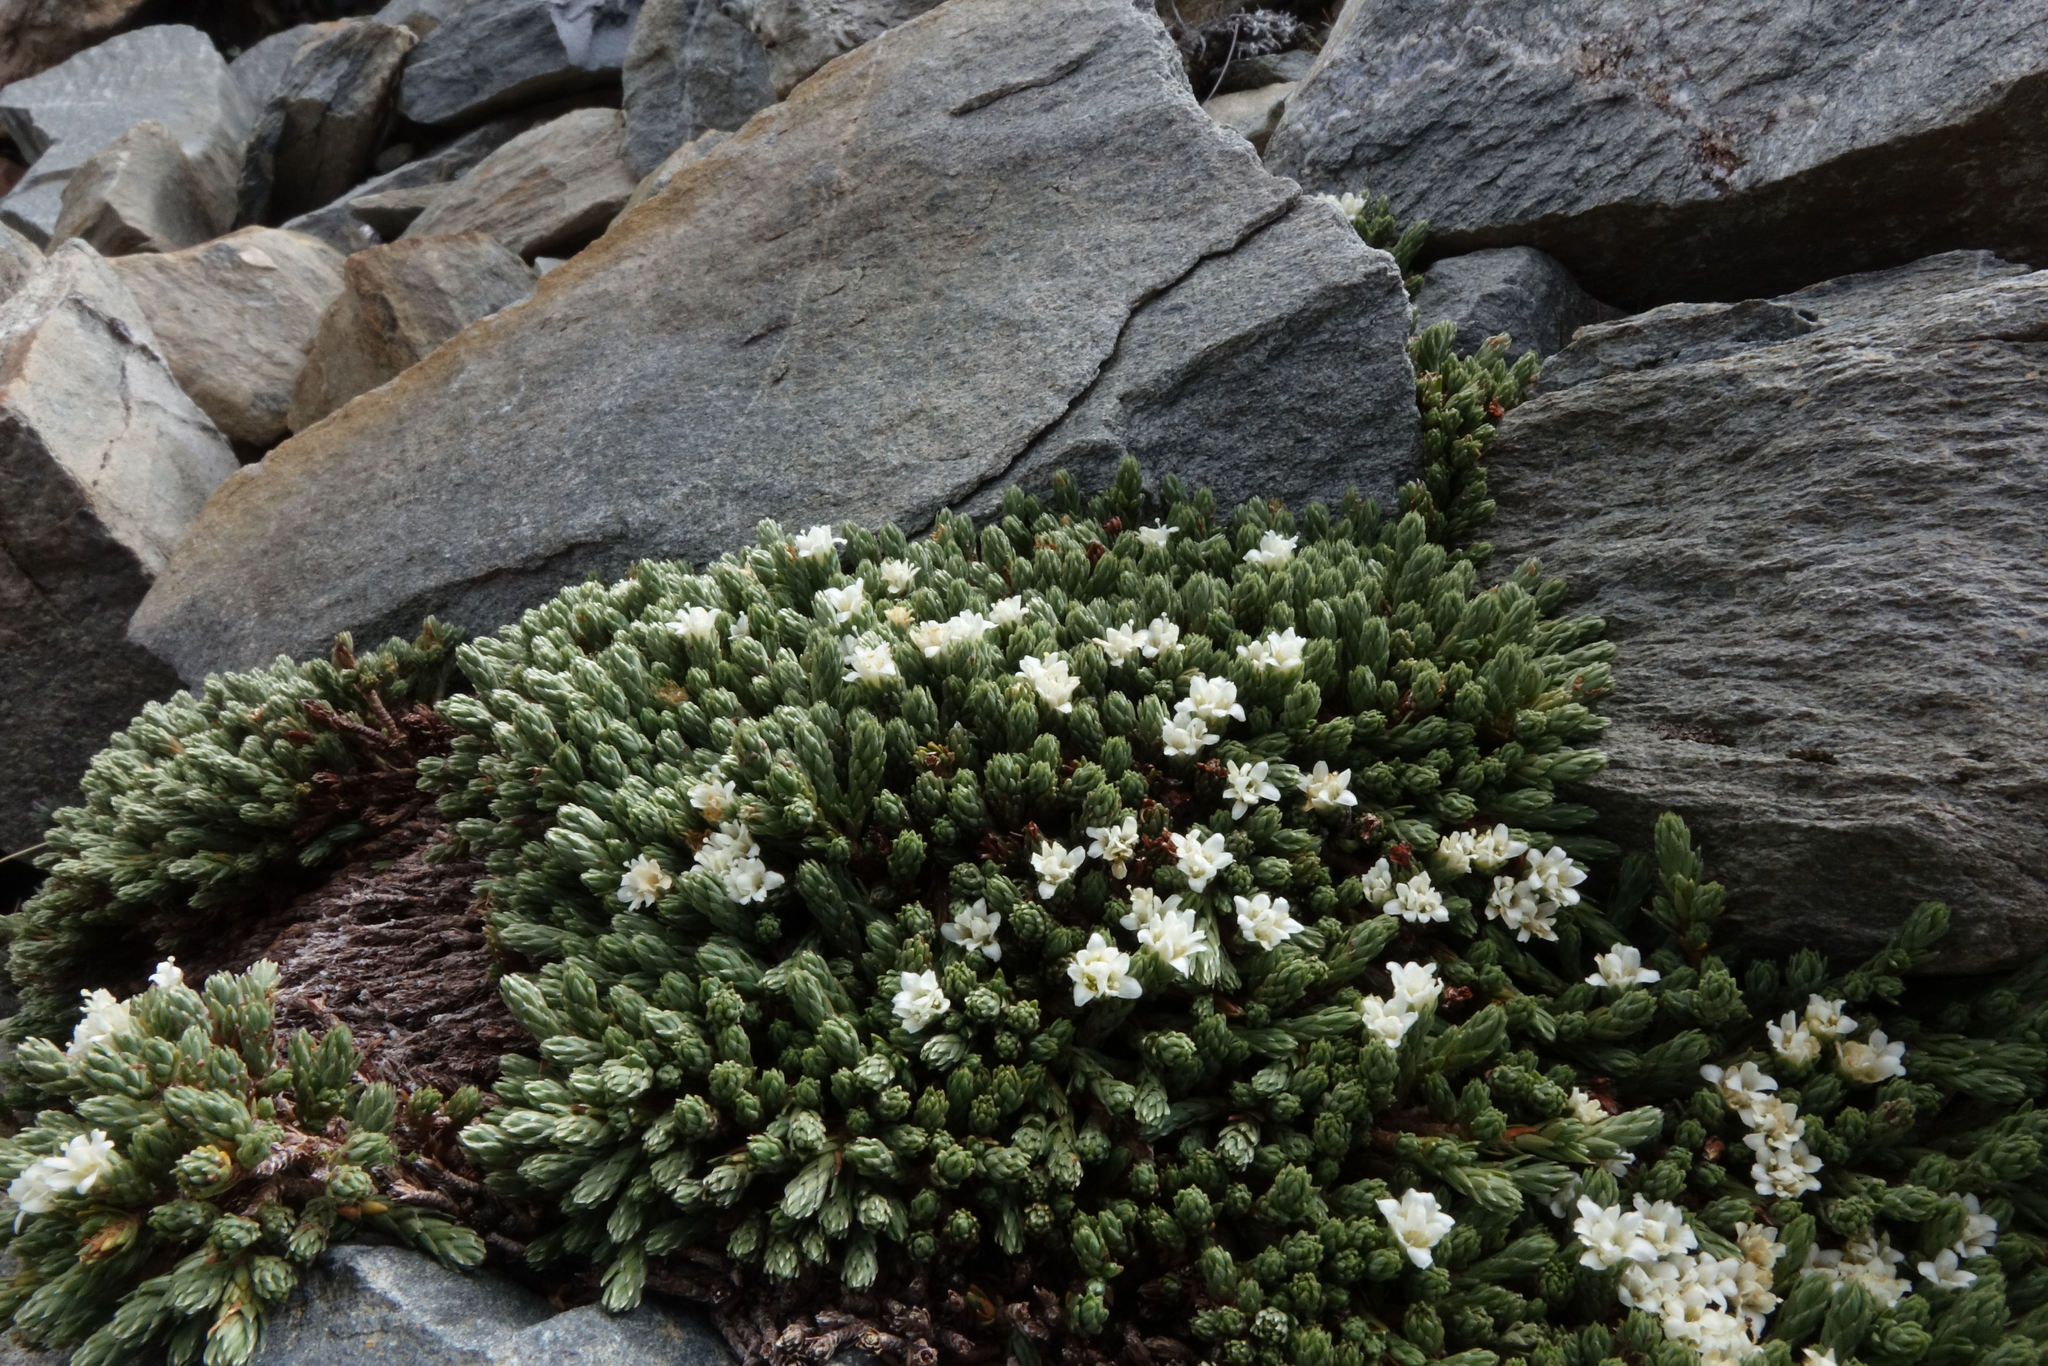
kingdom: Plantae
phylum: Tracheophyta
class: Magnoliopsida
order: Malvales
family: Thymelaeaceae
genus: Kelleria
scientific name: Kelleria villosa
